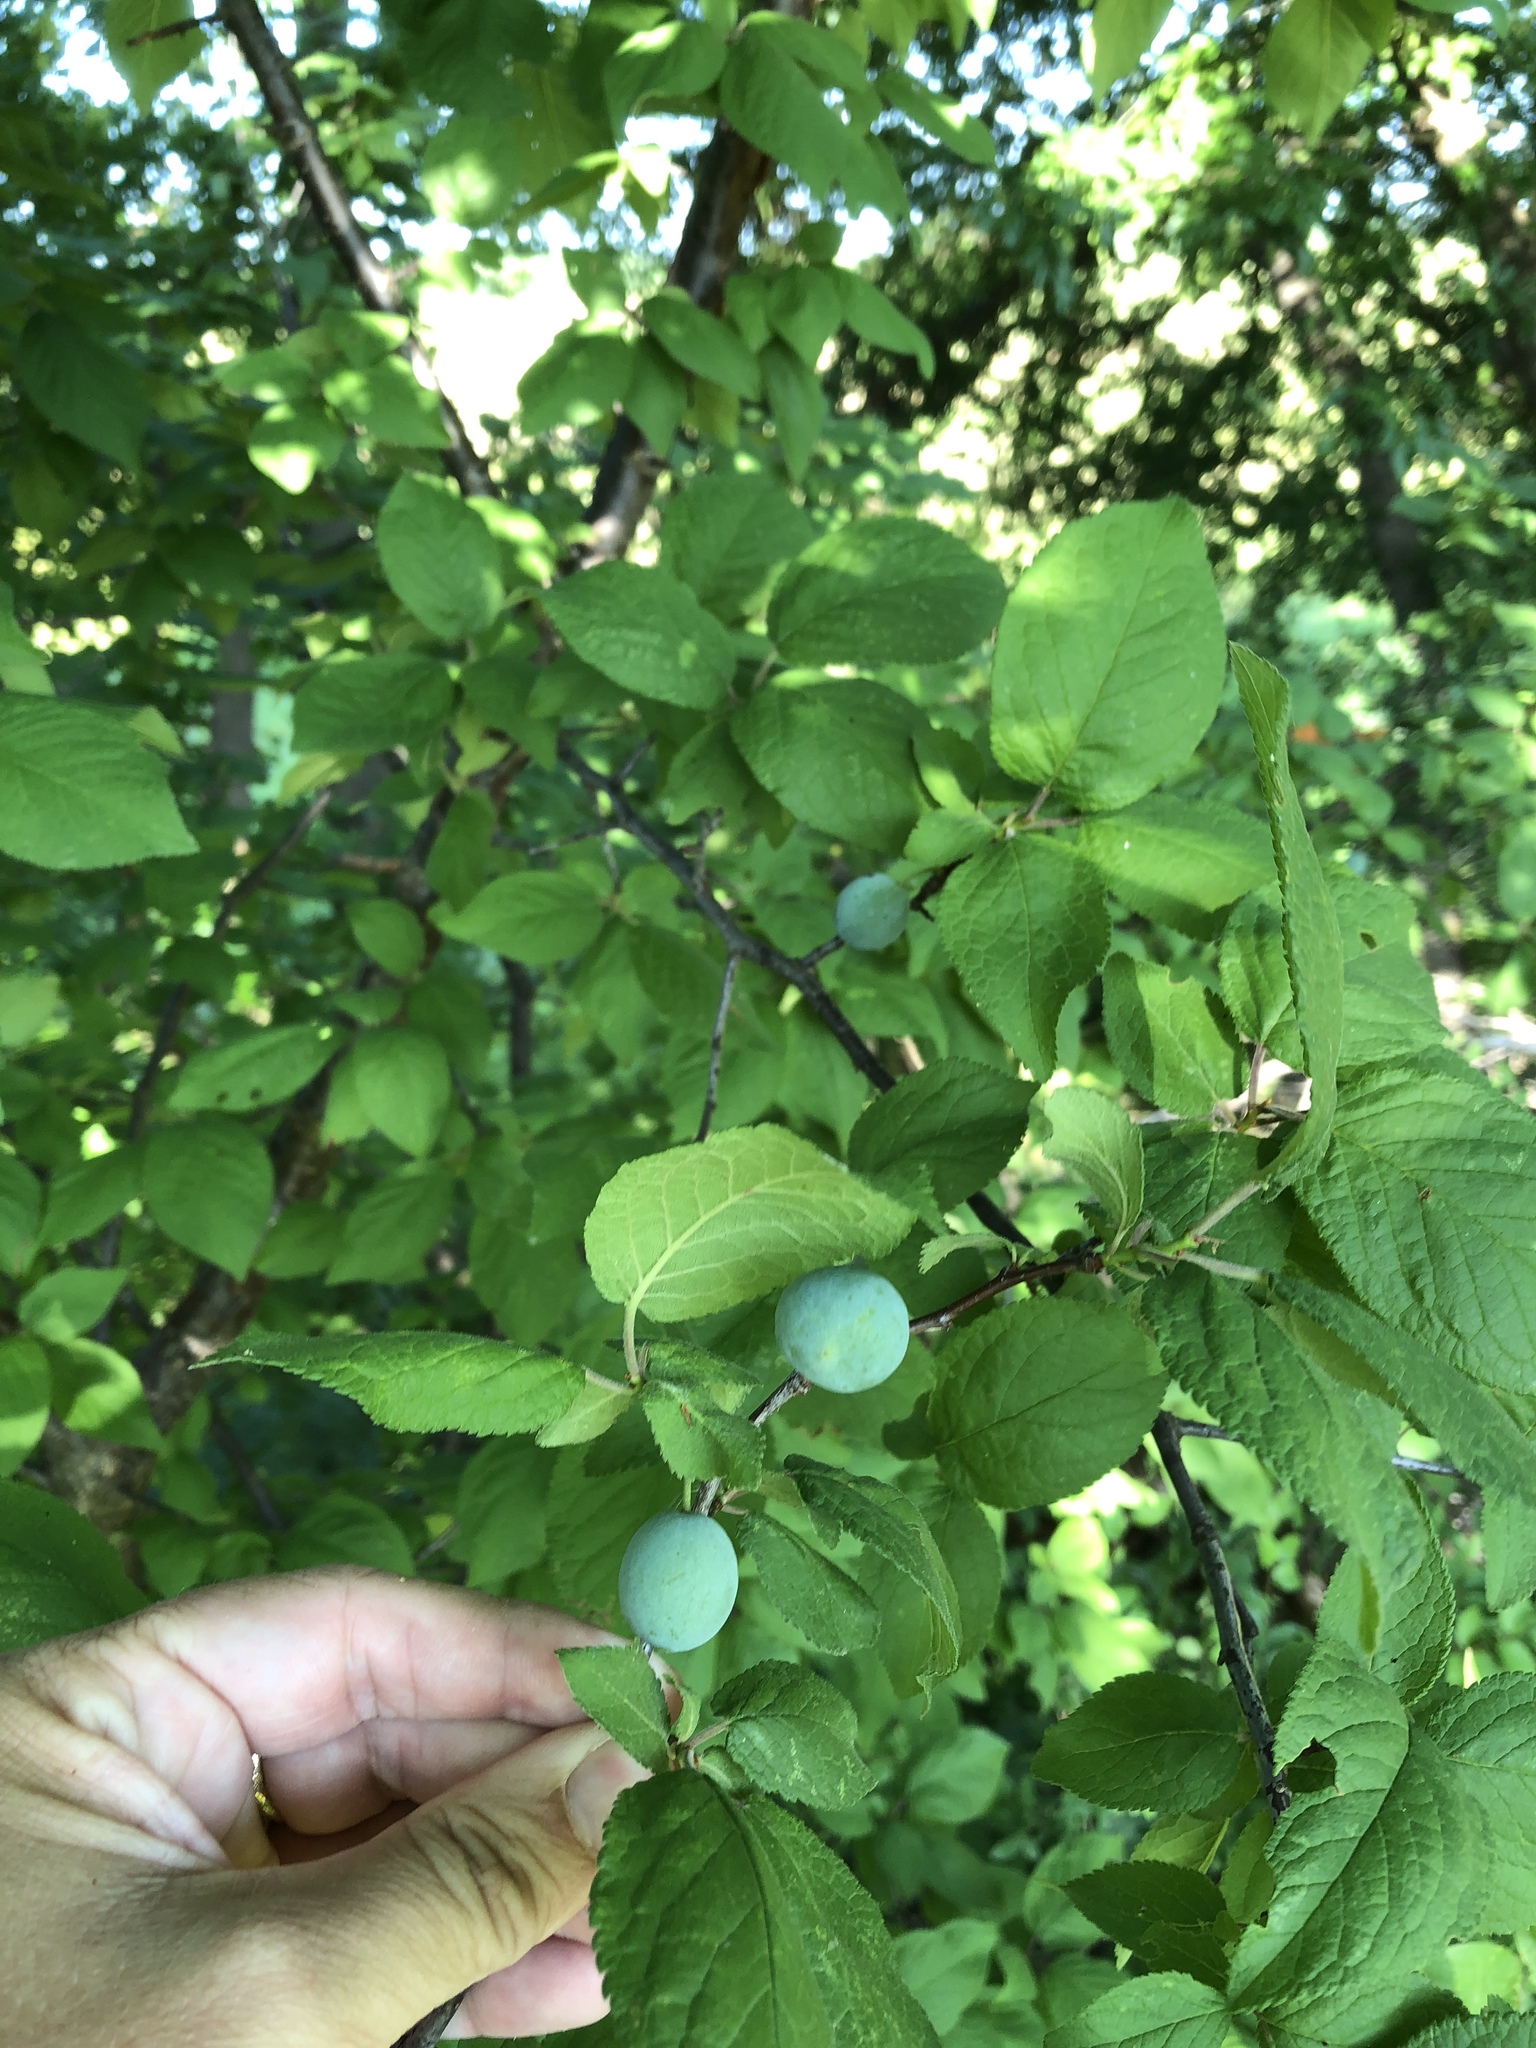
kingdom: Plantae
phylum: Tracheophyta
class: Magnoliopsida
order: Rosales
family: Rosaceae
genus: Prunus
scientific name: Prunus mexicana
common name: Mexican plum
